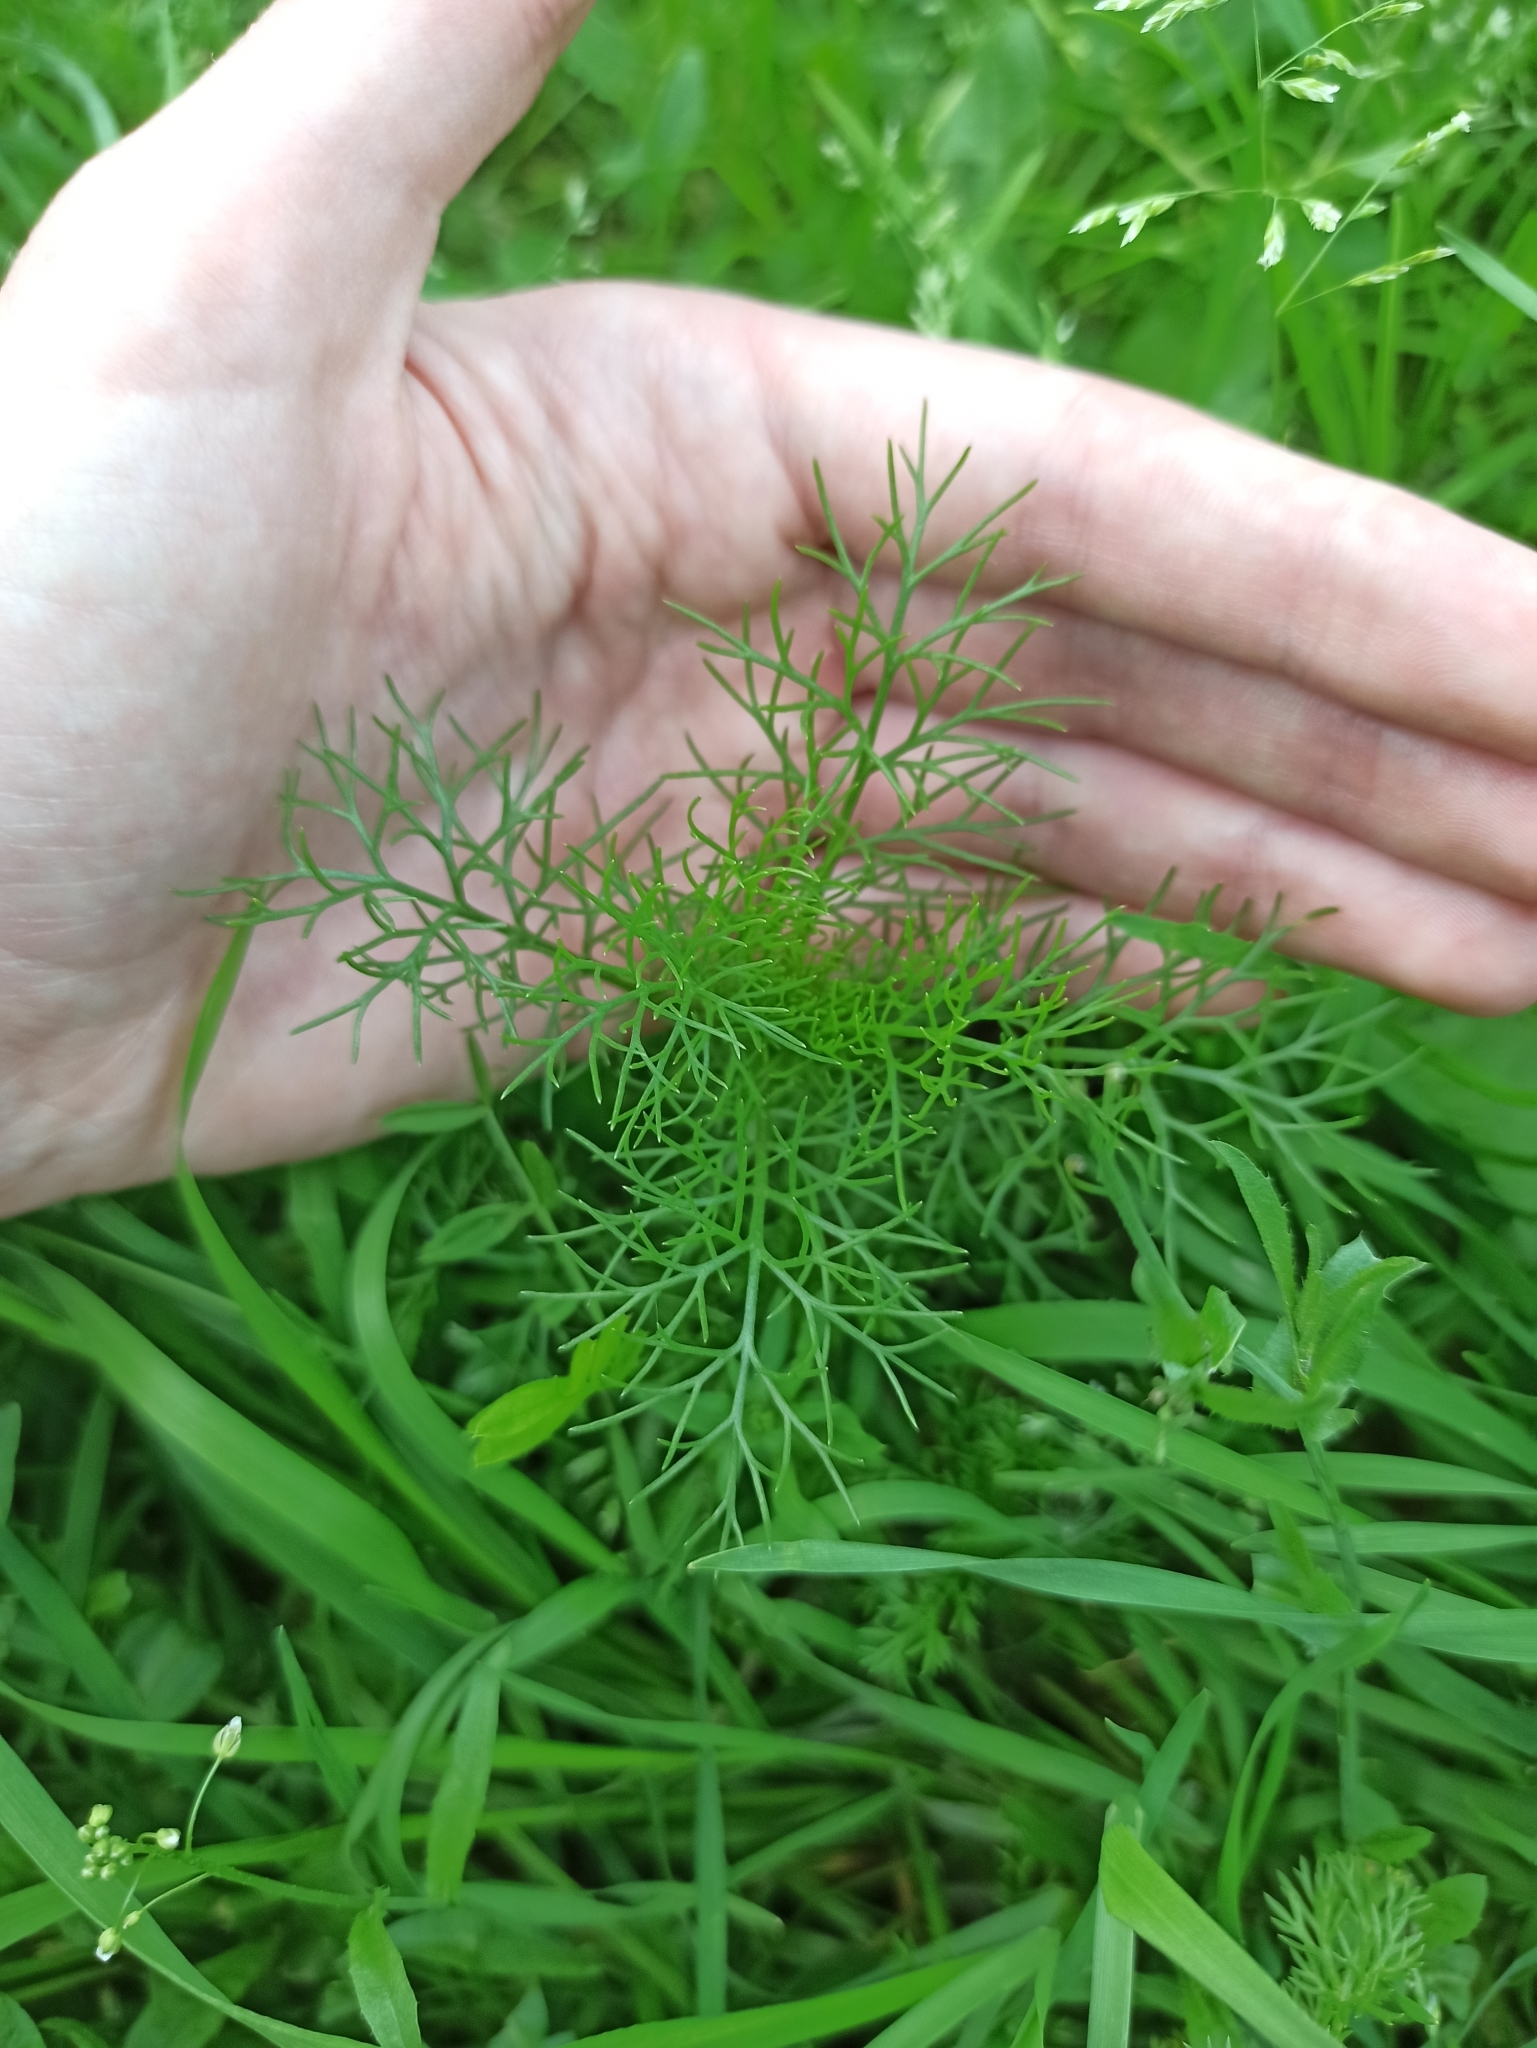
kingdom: Plantae
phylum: Tracheophyta
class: Magnoliopsida
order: Asterales
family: Asteraceae
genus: Tripleurospermum
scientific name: Tripleurospermum inodorum
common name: Scentless mayweed
